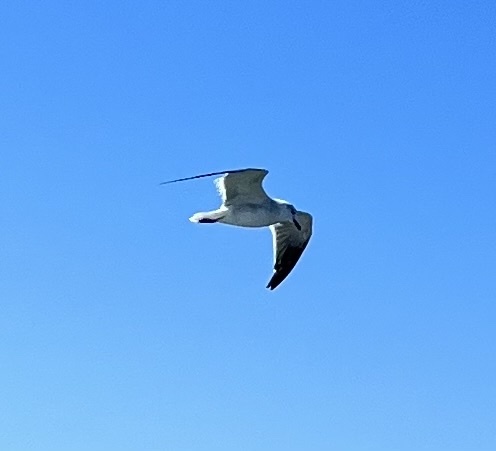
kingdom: Animalia
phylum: Chordata
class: Aves
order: Charadriiformes
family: Laridae
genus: Leucophaeus
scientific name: Leucophaeus atricilla
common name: Laughing gull
